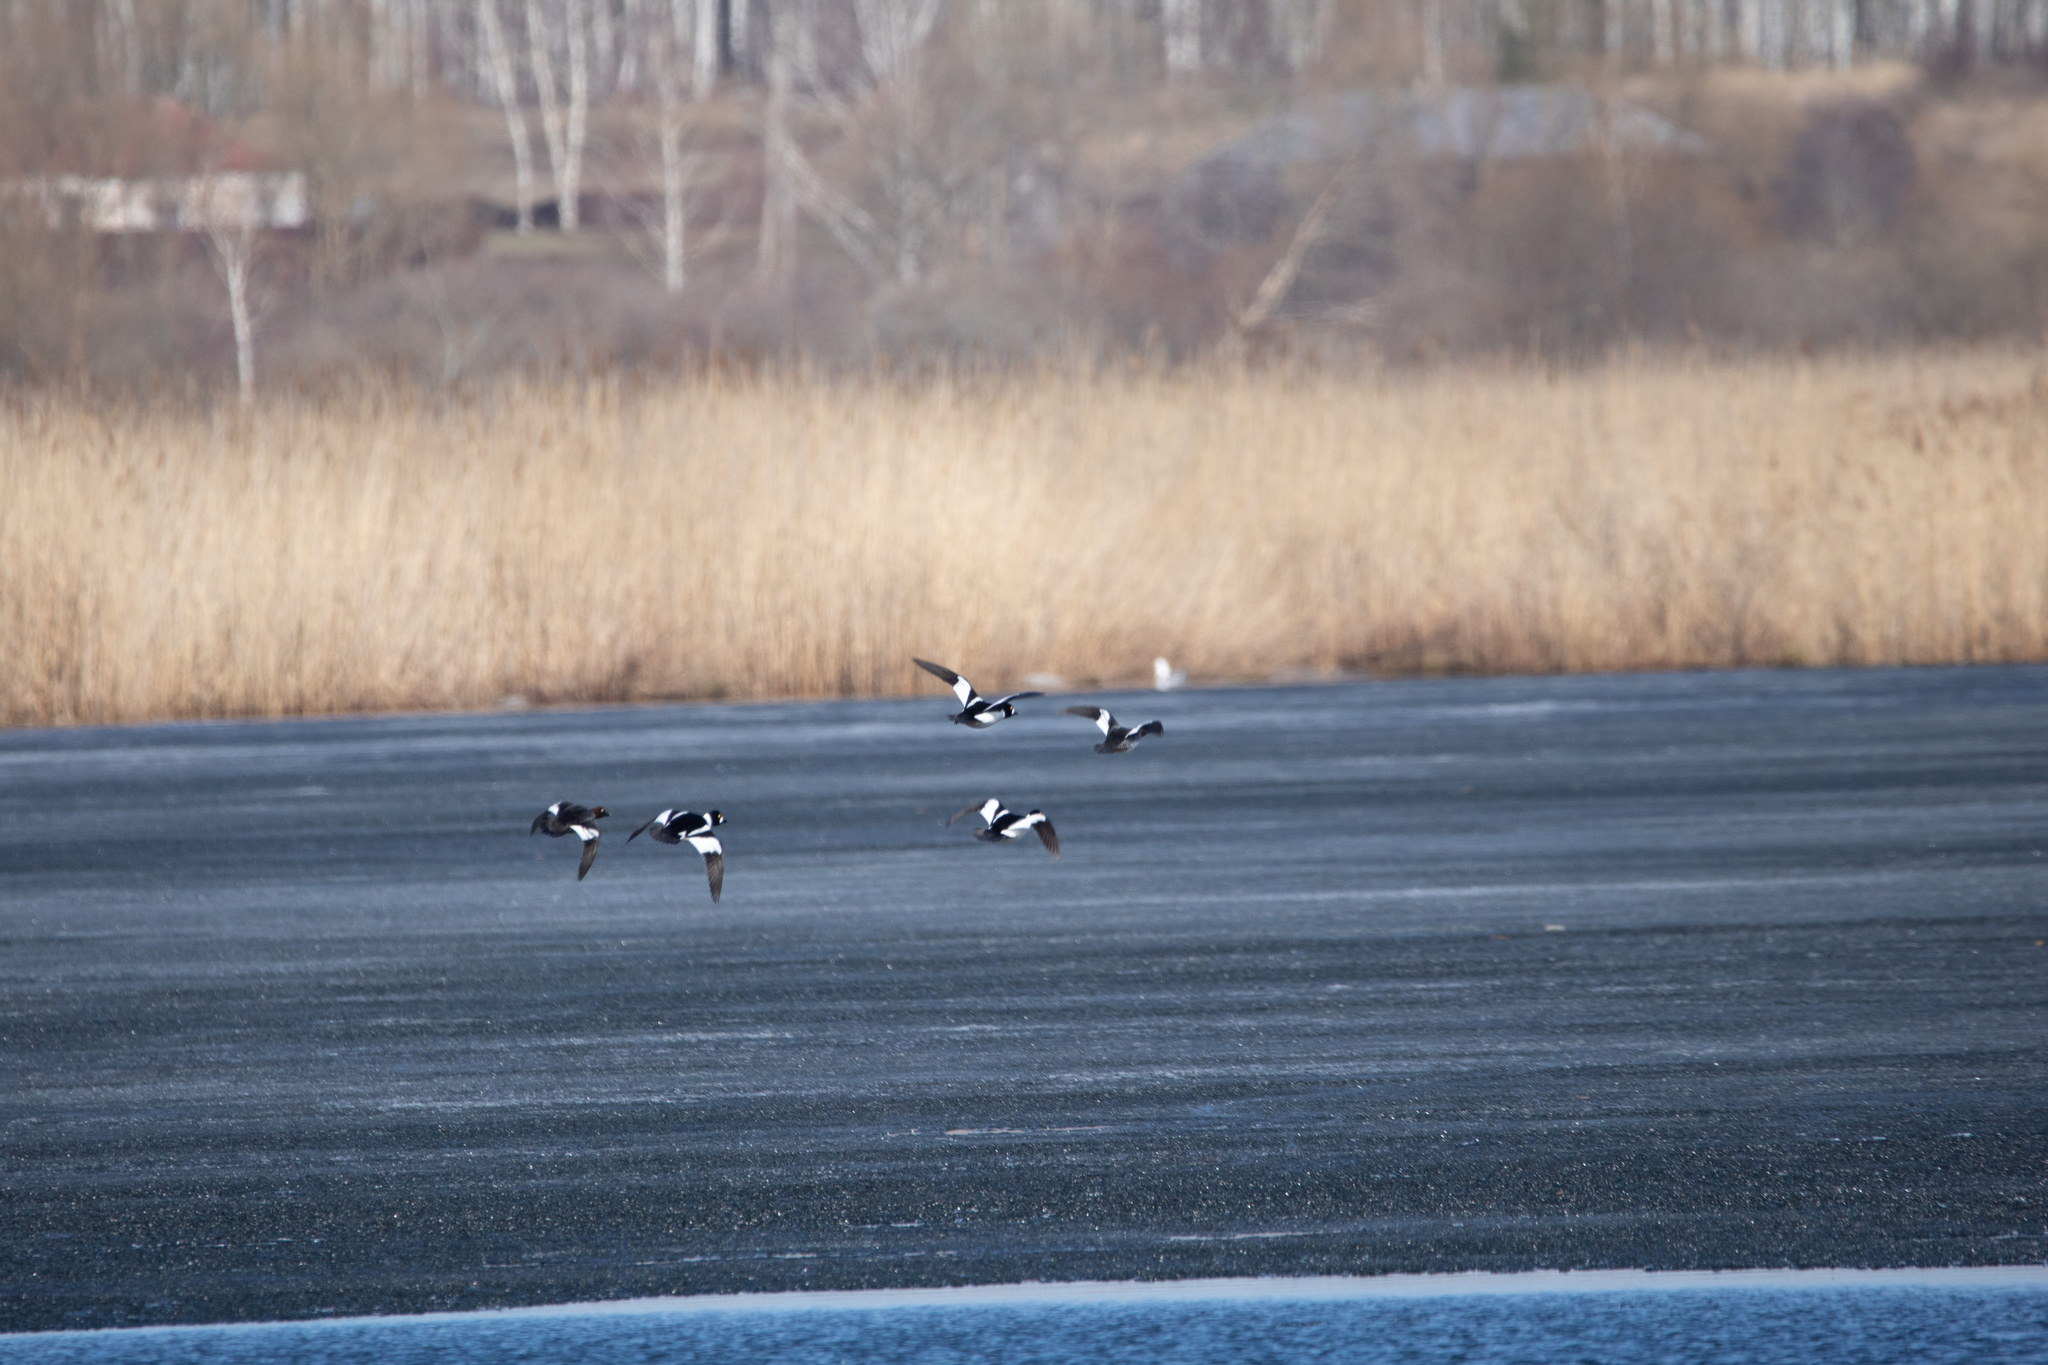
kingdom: Animalia
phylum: Chordata
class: Aves
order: Anseriformes
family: Anatidae
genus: Bucephala
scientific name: Bucephala clangula
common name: Common goldeneye
